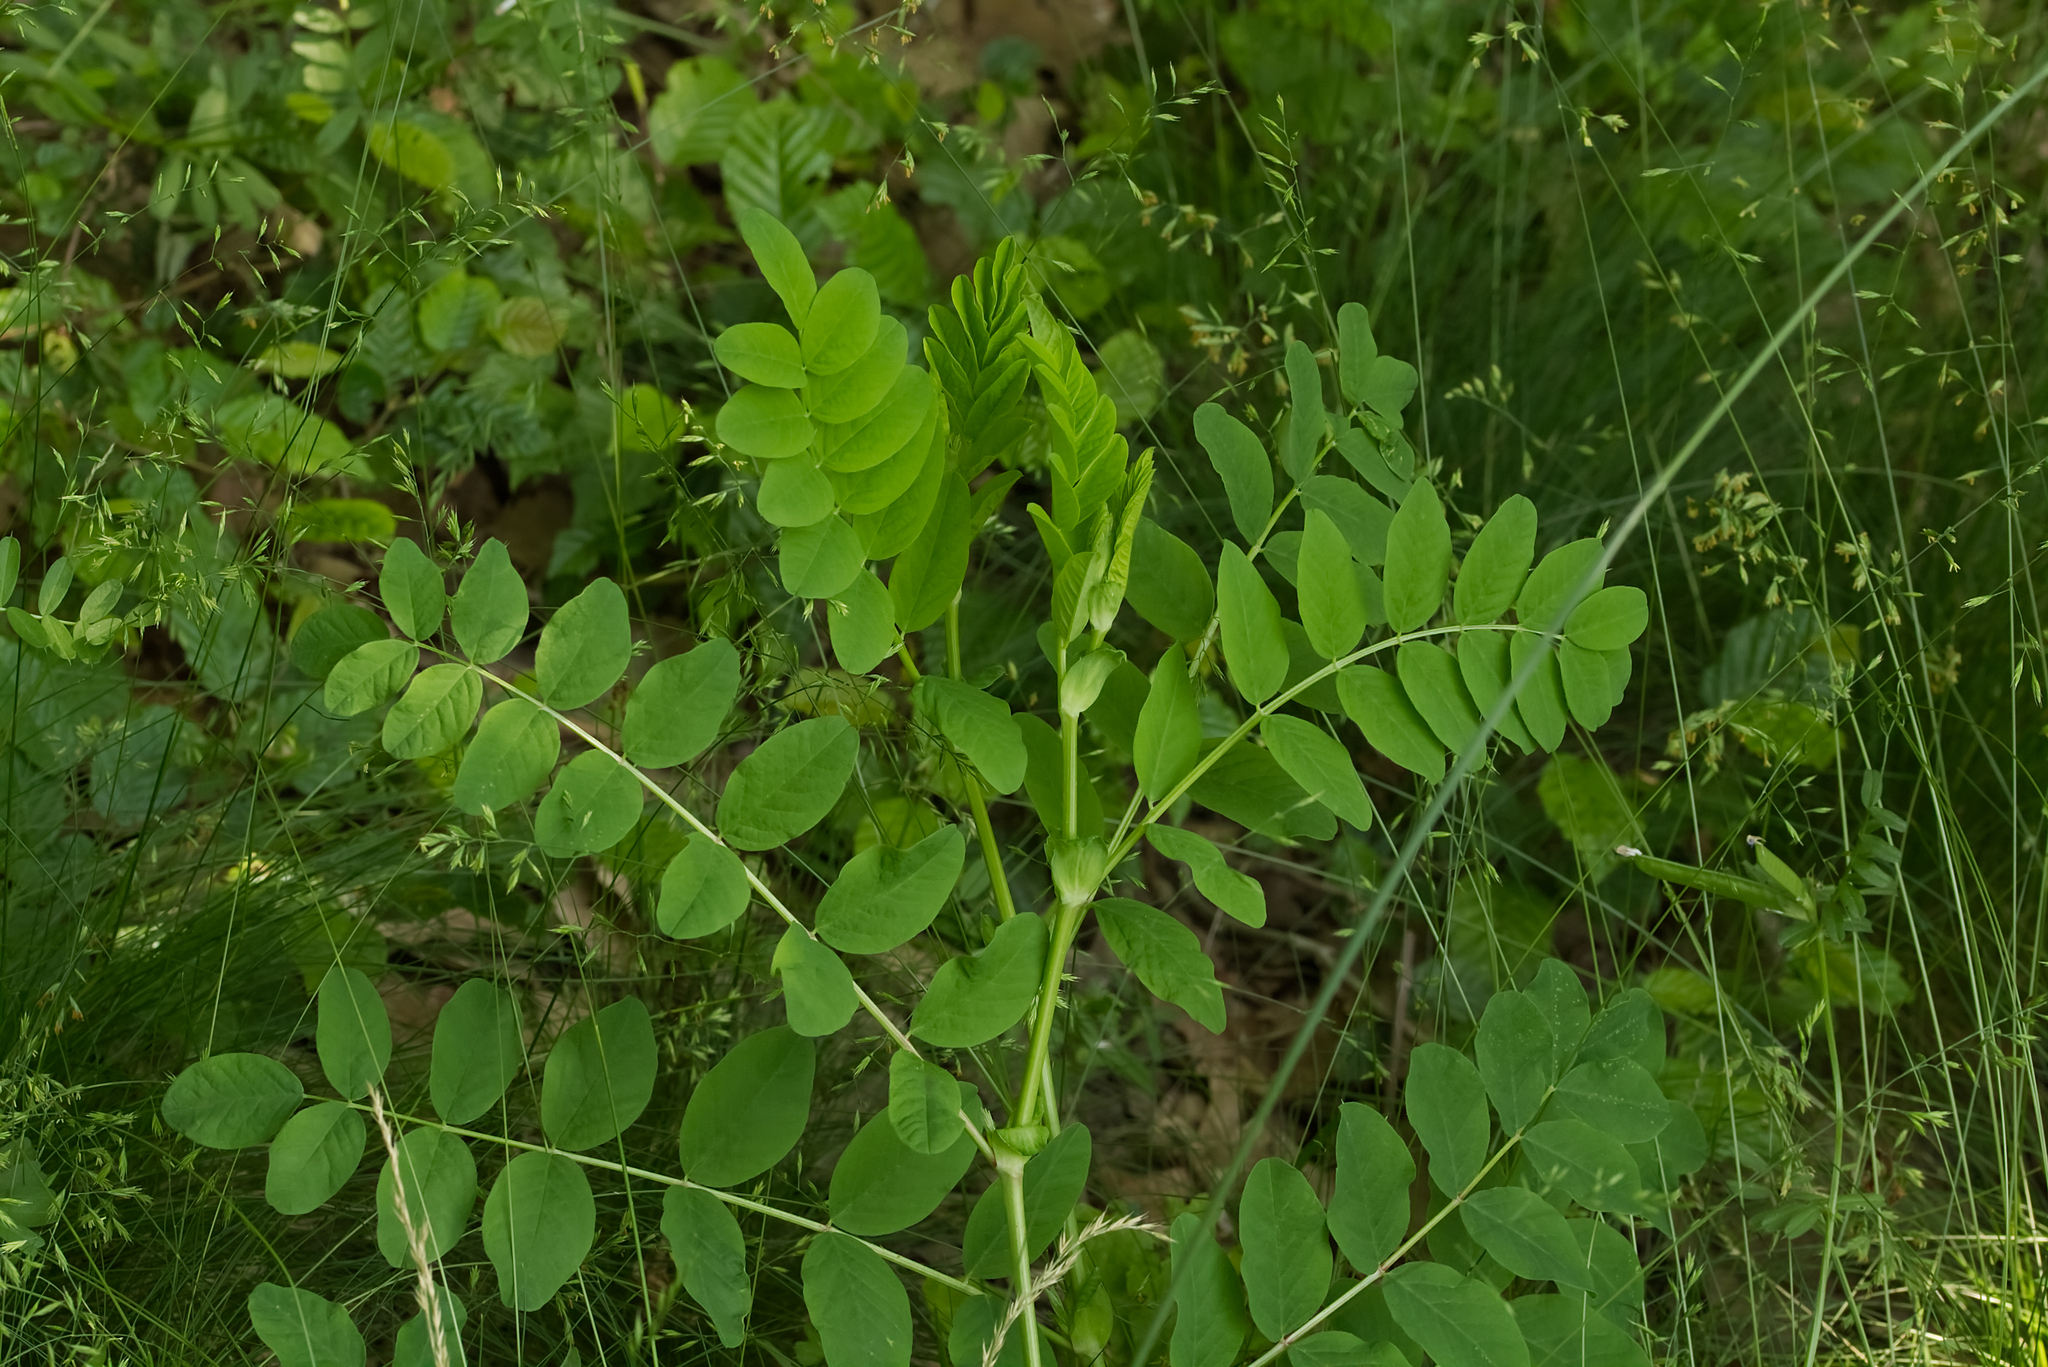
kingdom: Plantae
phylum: Tracheophyta
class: Magnoliopsida
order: Fabales
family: Fabaceae
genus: Astragalus
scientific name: Astragalus glycyphyllos
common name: Wild liquorice
